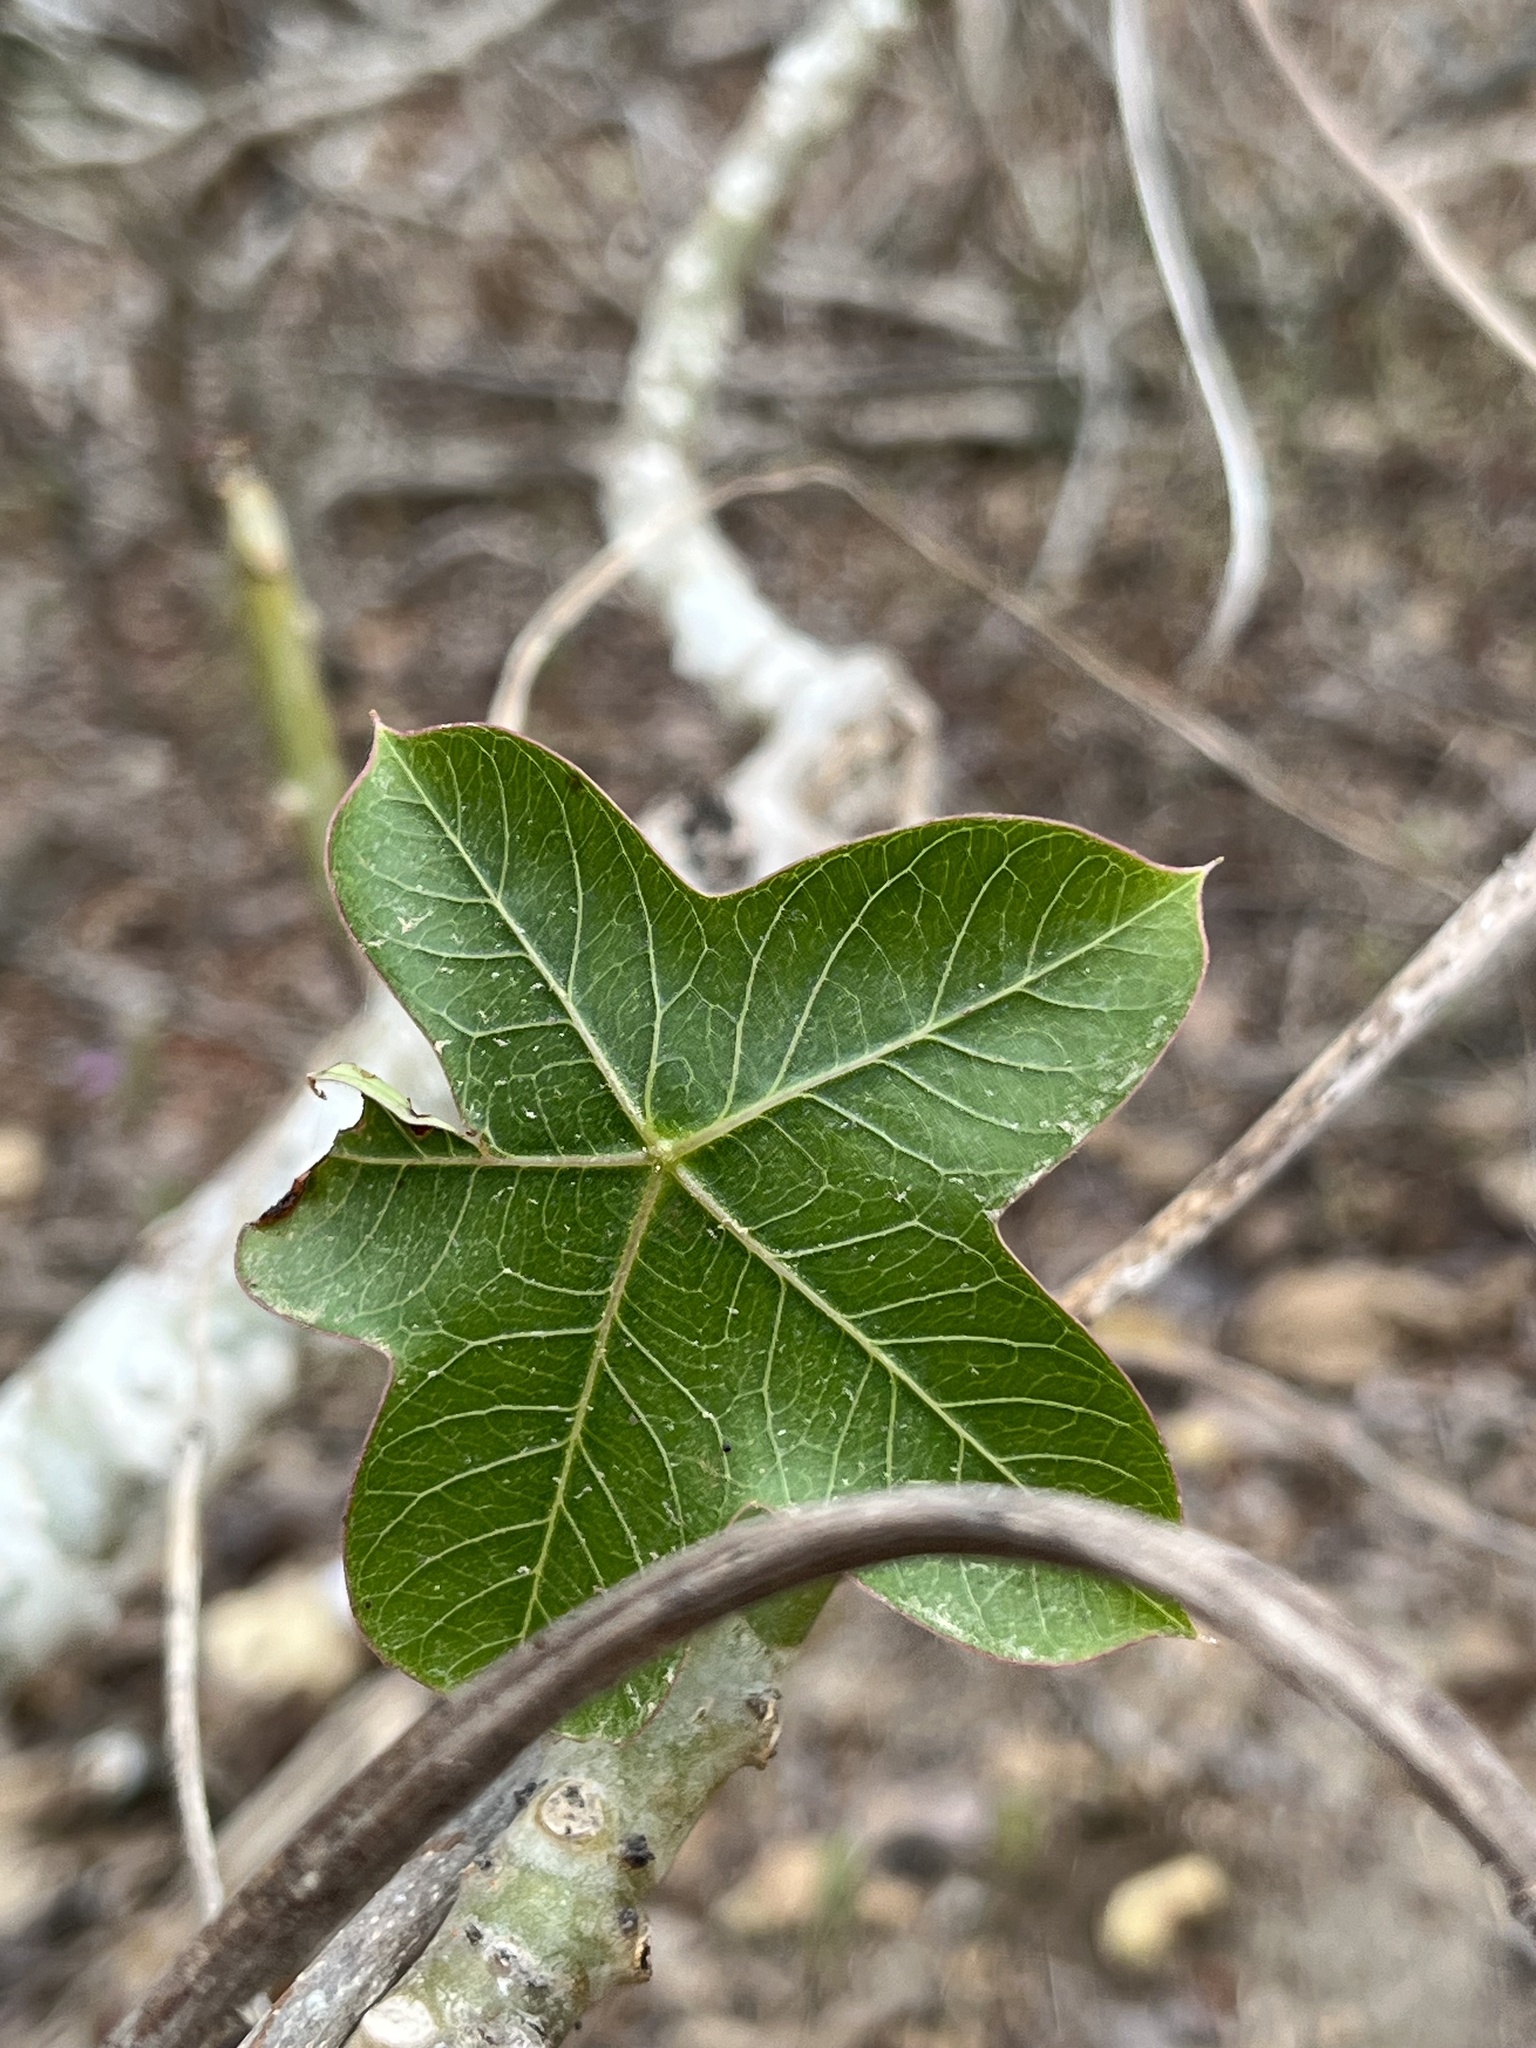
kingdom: Plantae
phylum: Tracheophyta
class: Magnoliopsida
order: Malpighiales
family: Euphorbiaceae
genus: Jatropha
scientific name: Jatropha nudicaulis
